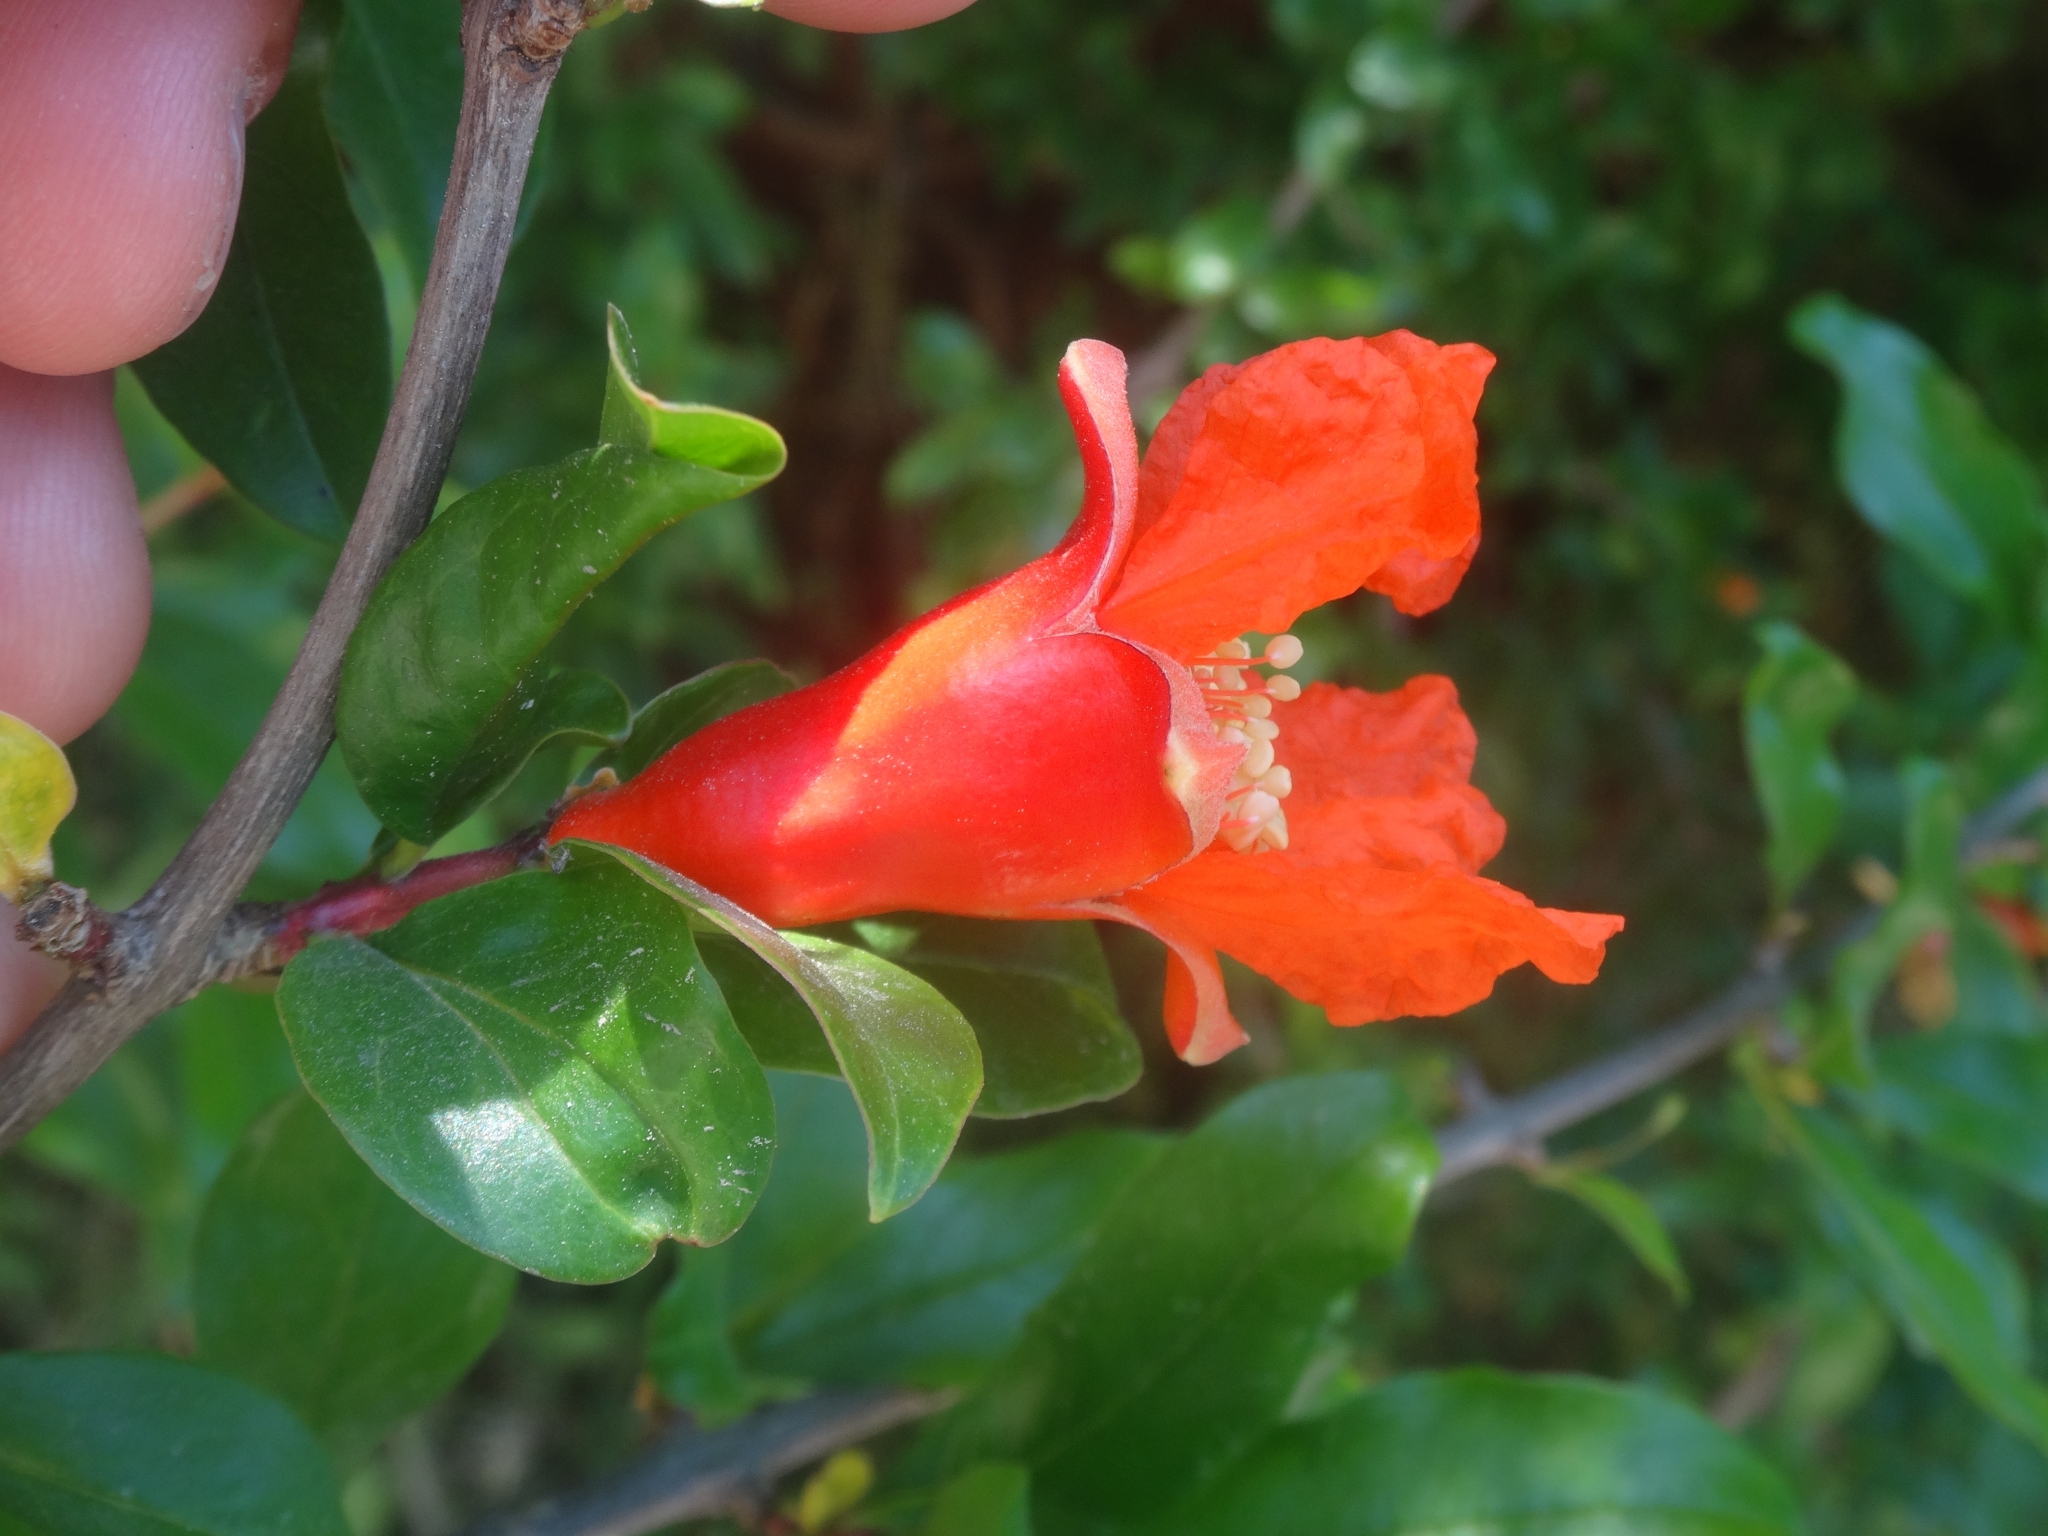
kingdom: Plantae
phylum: Tracheophyta
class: Magnoliopsida
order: Myrtales
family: Lythraceae
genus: Punica
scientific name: Punica granatum
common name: Pomegranate
